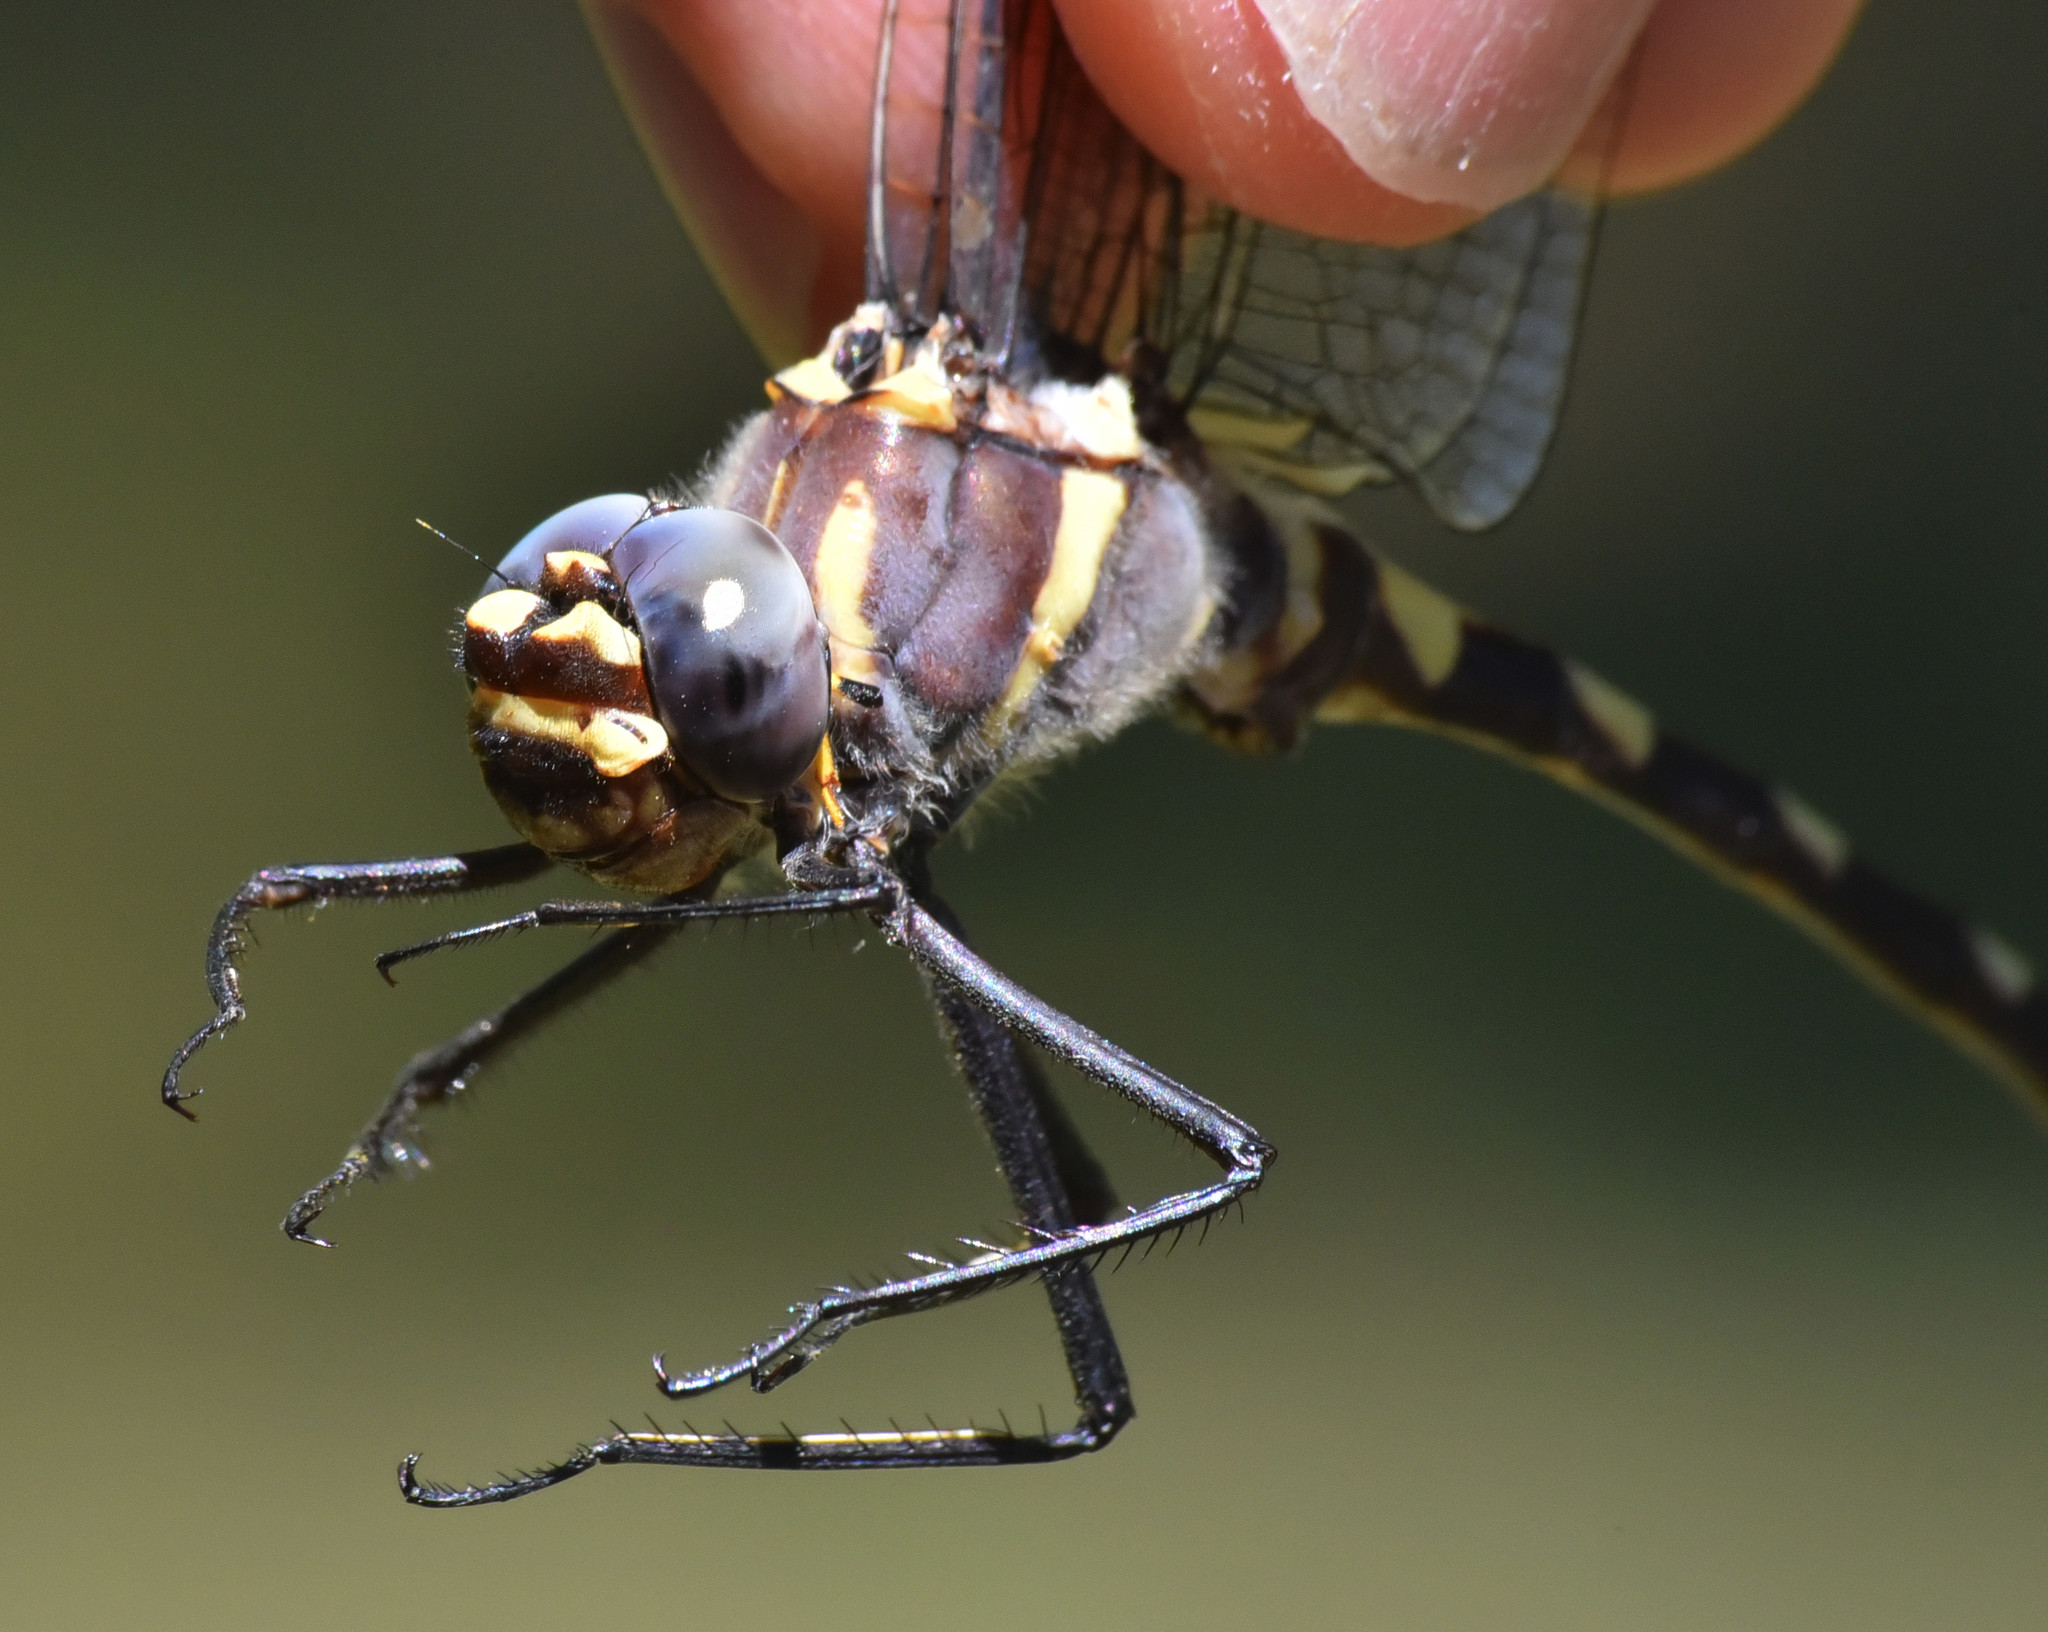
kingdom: Animalia
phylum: Arthropoda
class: Insecta
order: Odonata
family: Macromiidae
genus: Macromia
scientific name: Macromia magnifica
